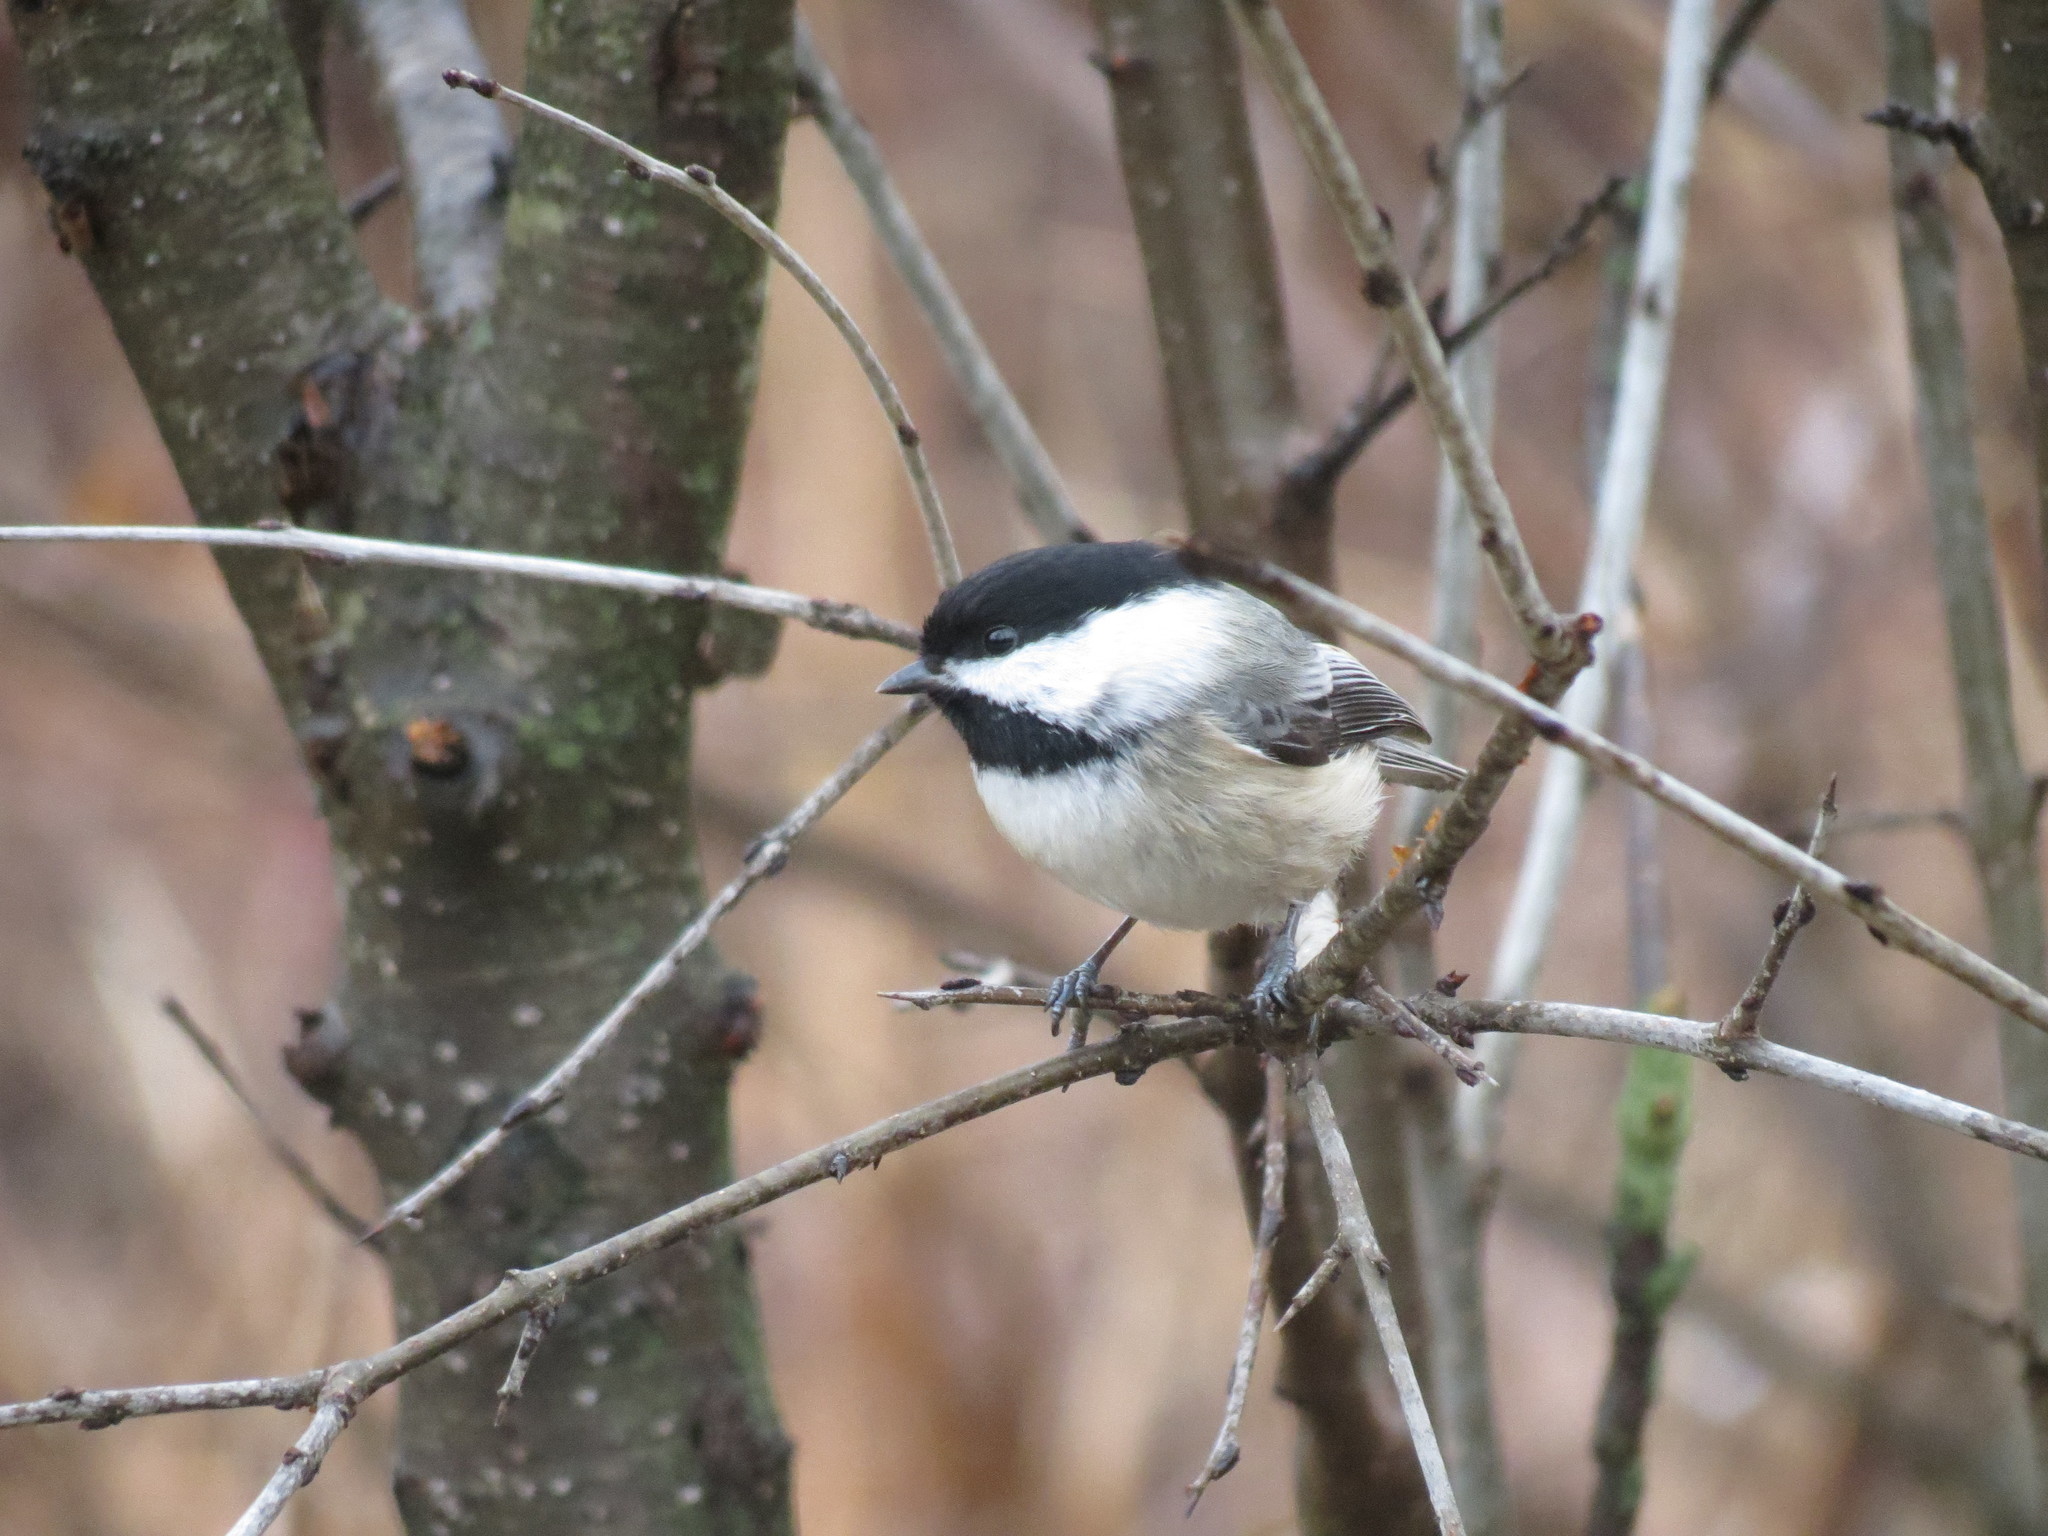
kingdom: Animalia
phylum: Chordata
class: Aves
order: Passeriformes
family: Paridae
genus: Poecile
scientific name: Poecile atricapillus
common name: Black-capped chickadee
